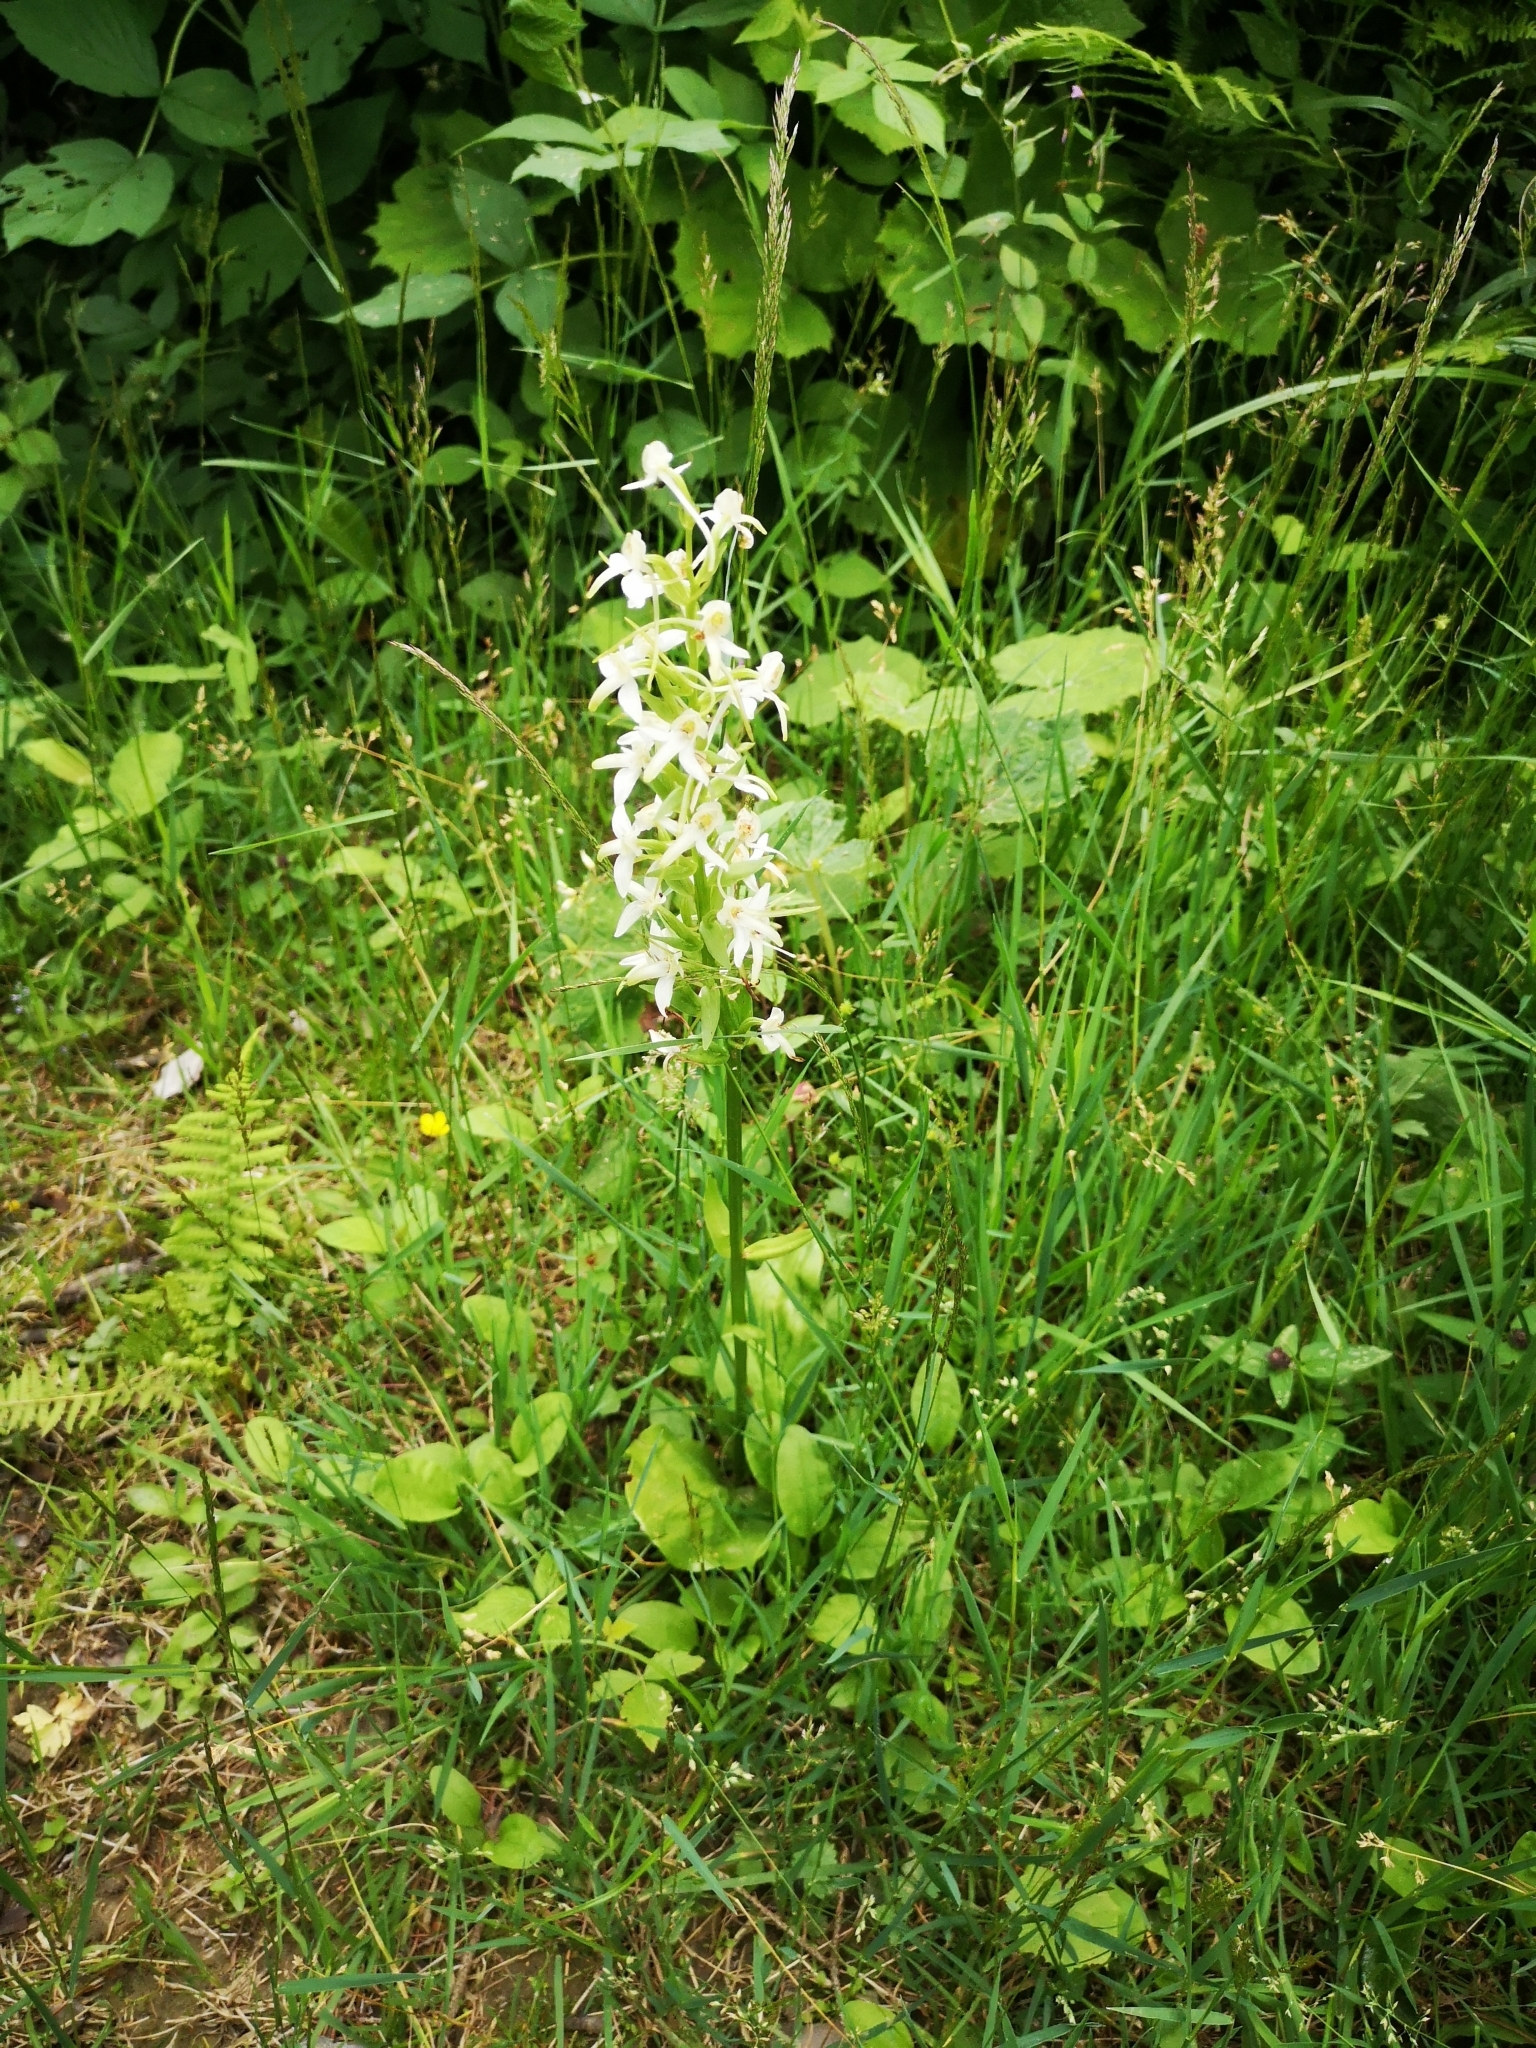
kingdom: Plantae
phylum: Tracheophyta
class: Liliopsida
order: Asparagales
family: Orchidaceae
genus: Platanthera
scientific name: Platanthera bifolia
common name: Lesser butterfly-orchid
